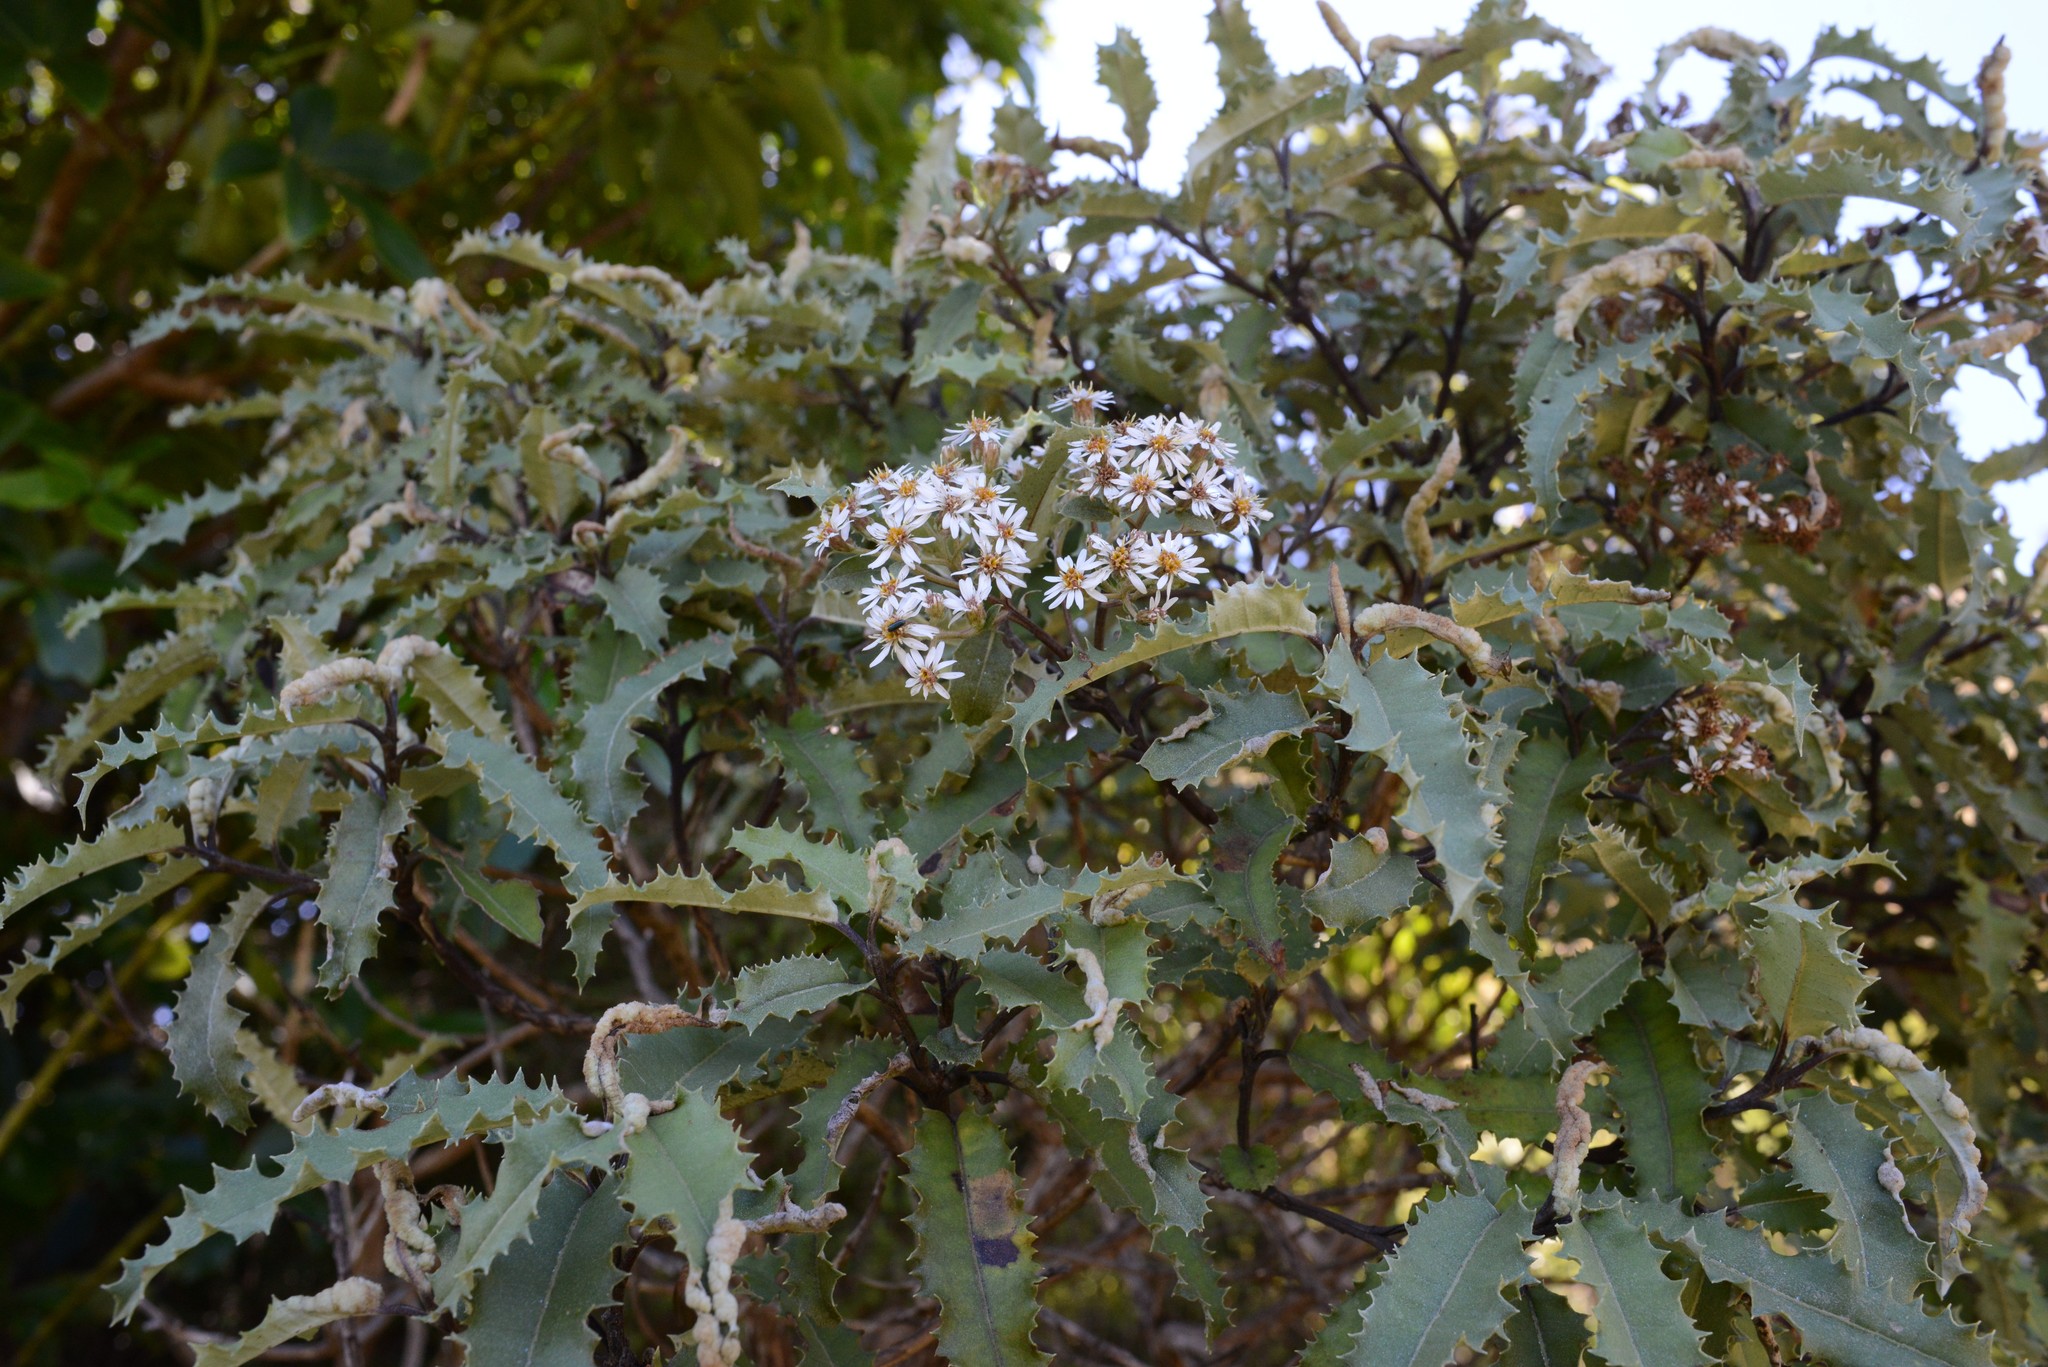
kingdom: Plantae
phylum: Tracheophyta
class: Magnoliopsida
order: Asterales
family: Asteraceae
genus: Olearia
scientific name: Olearia ilicifolia
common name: Maori-holly
